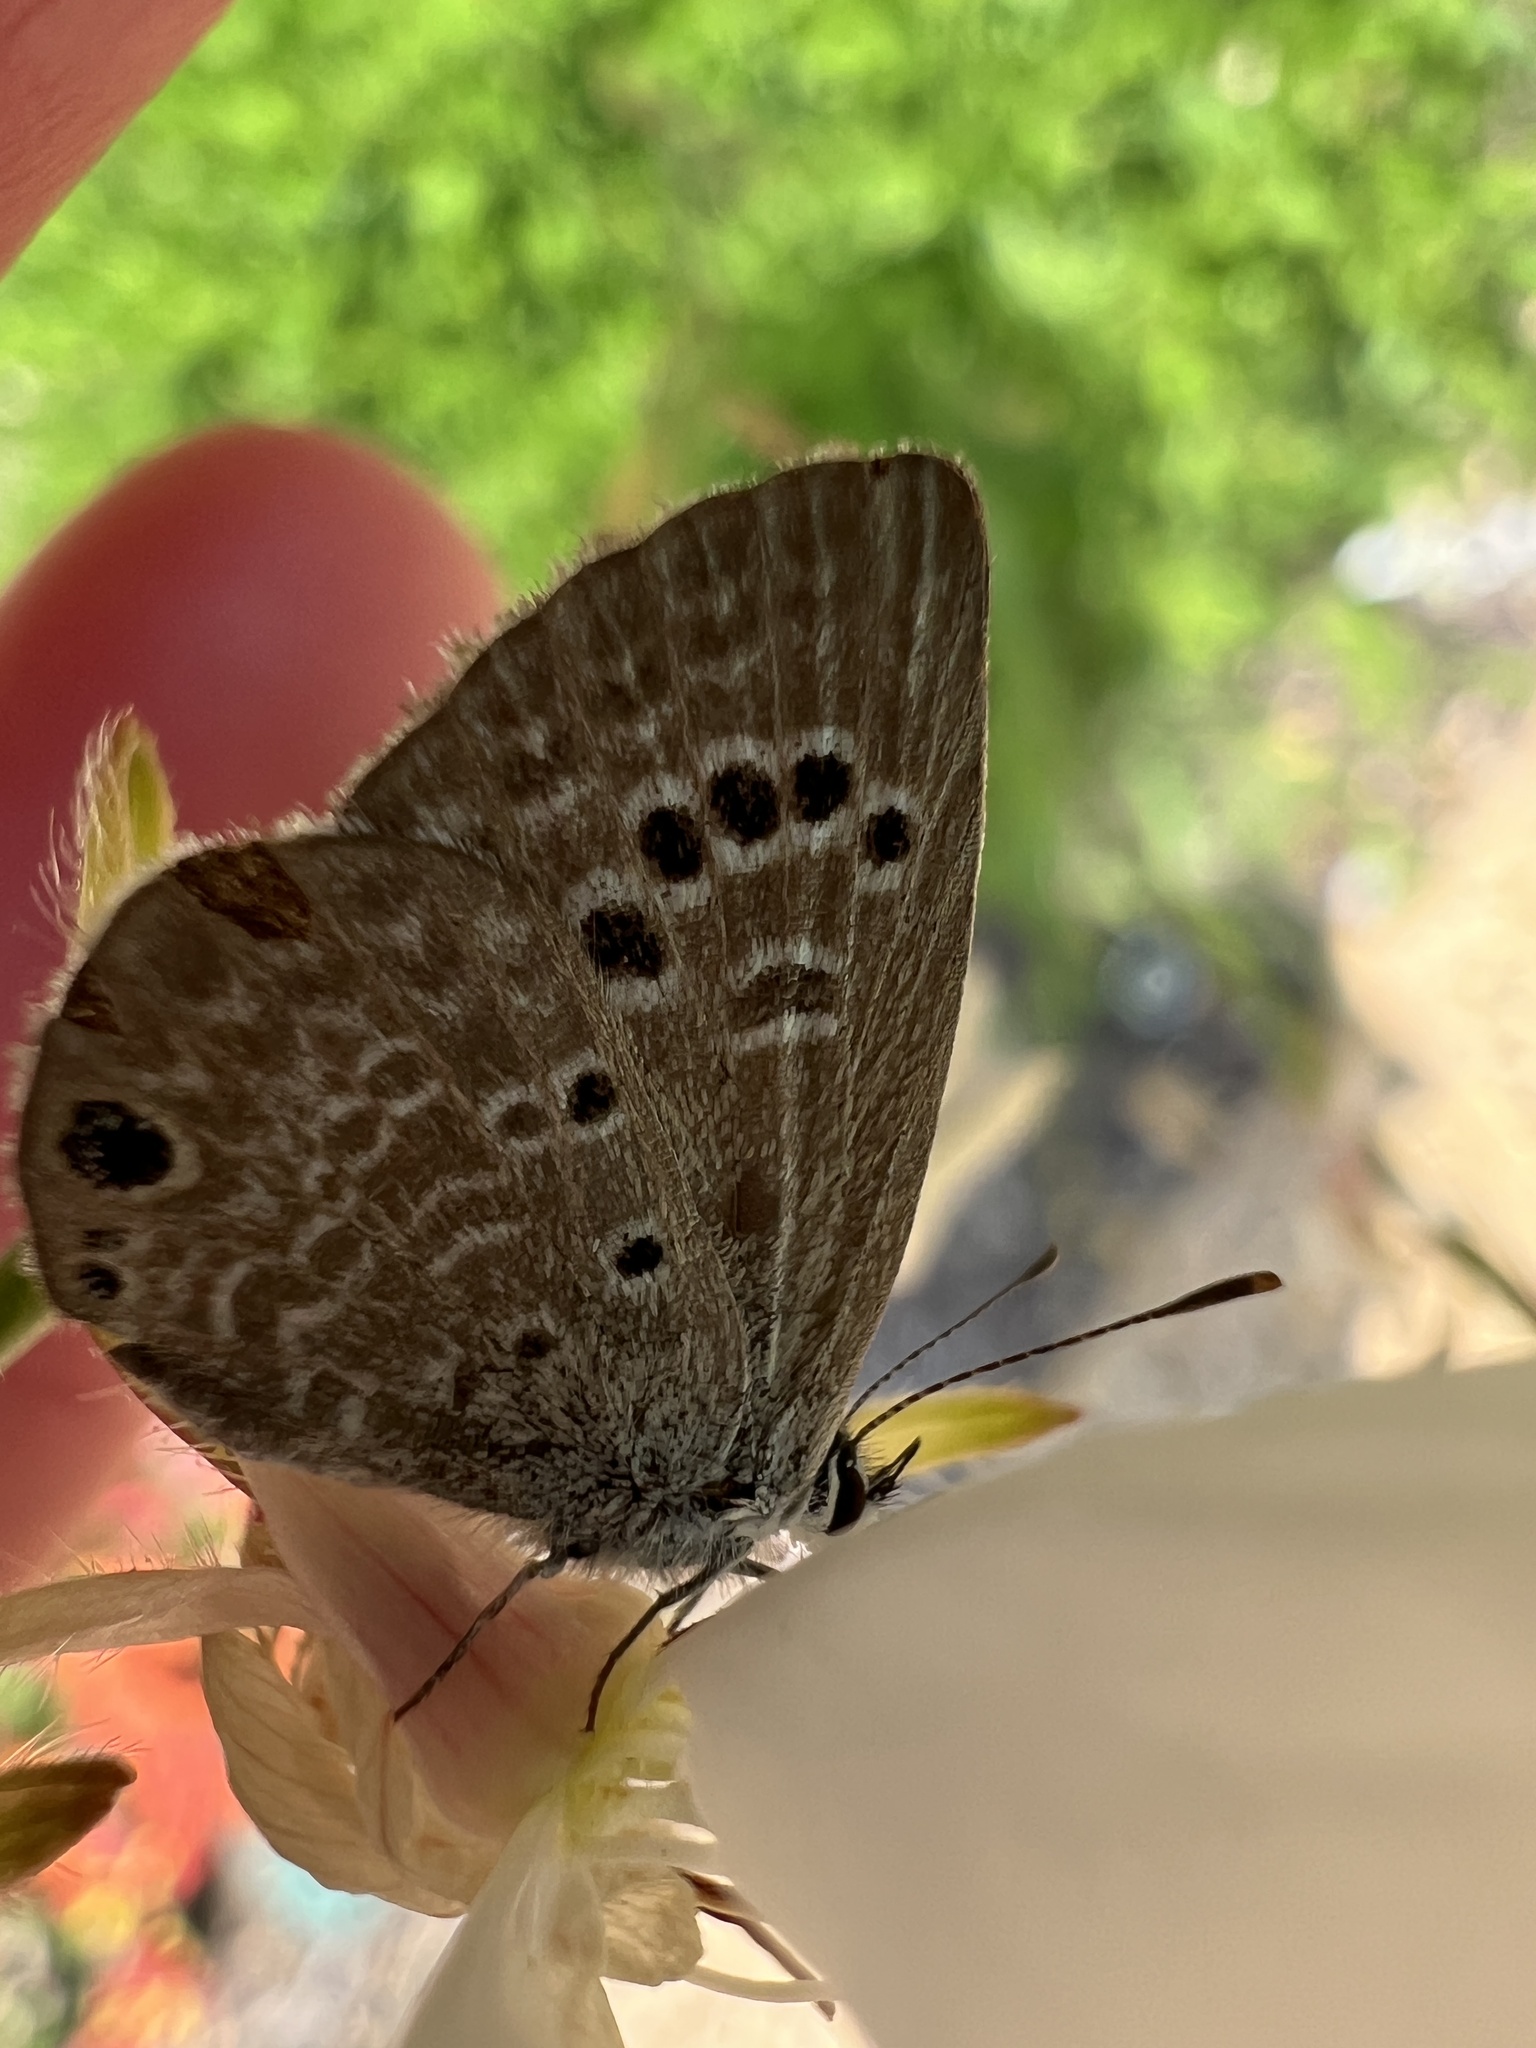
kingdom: Animalia
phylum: Arthropoda
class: Insecta
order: Lepidoptera
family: Lycaenidae
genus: Echinargus
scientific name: Echinargus isola
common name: Reakirt's blue
